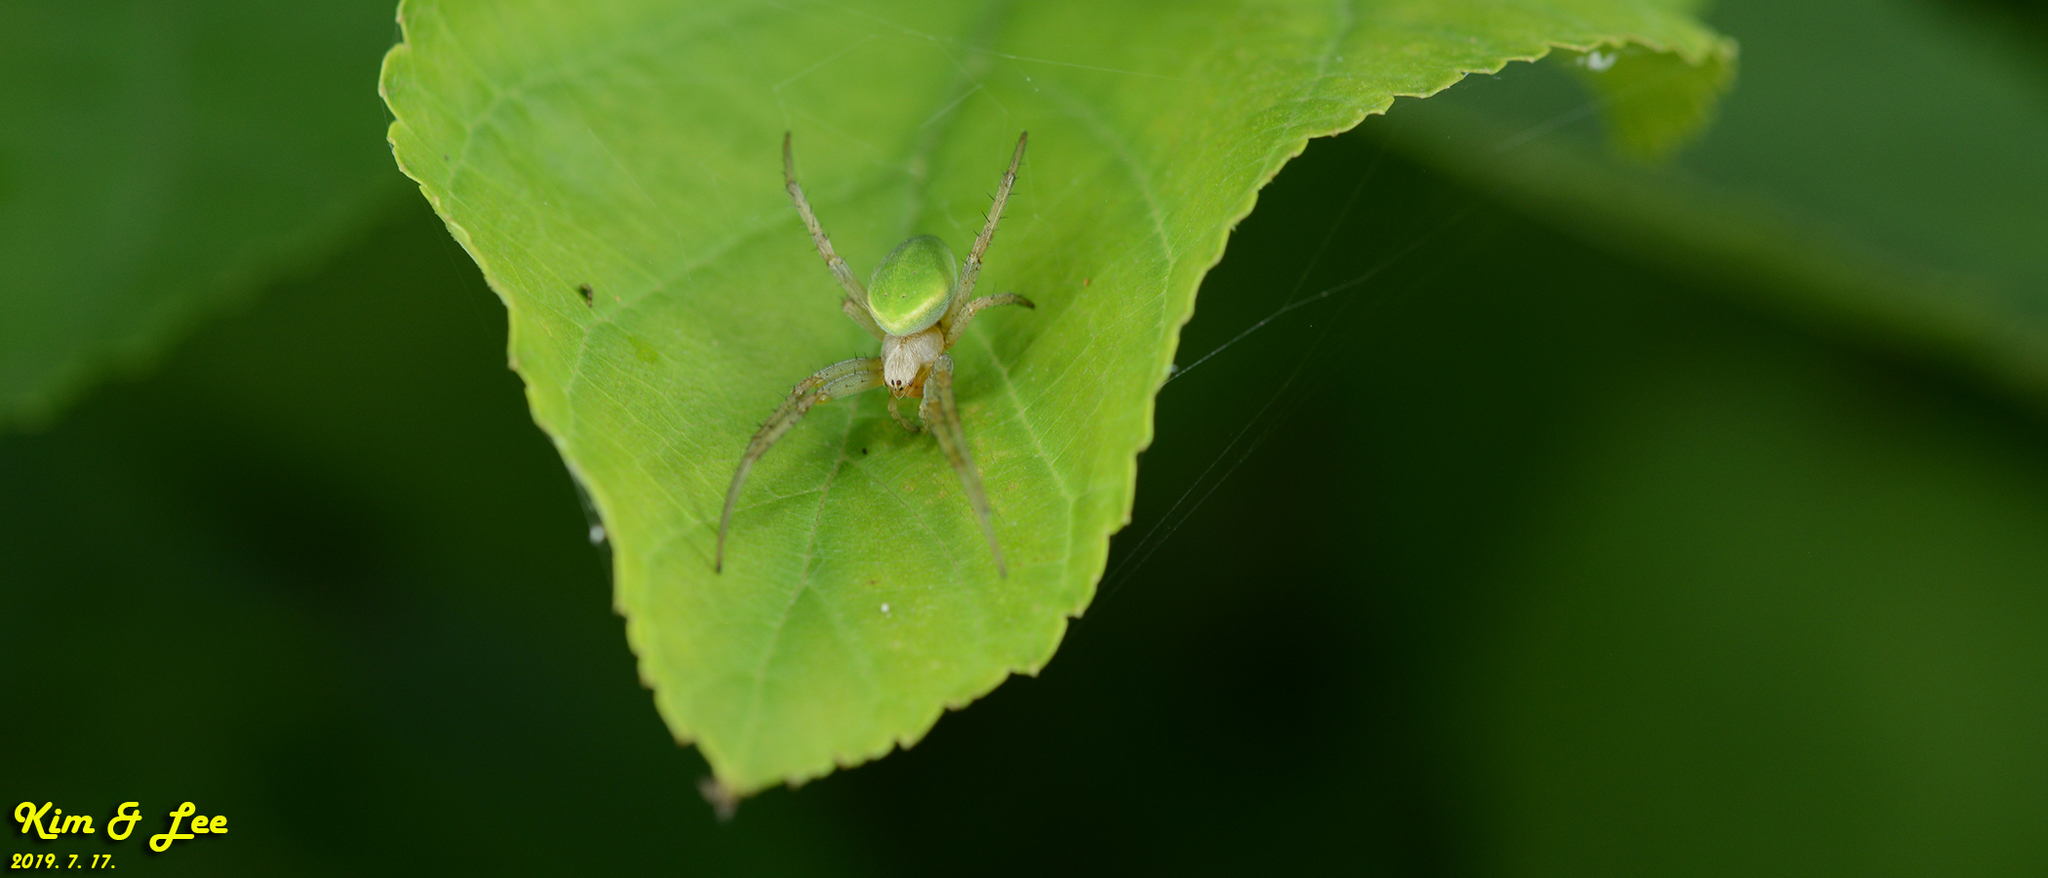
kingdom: Animalia
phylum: Arthropoda
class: Arachnida
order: Araneae
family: Araneidae
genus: Neoscona
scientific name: Neoscona scylloides
